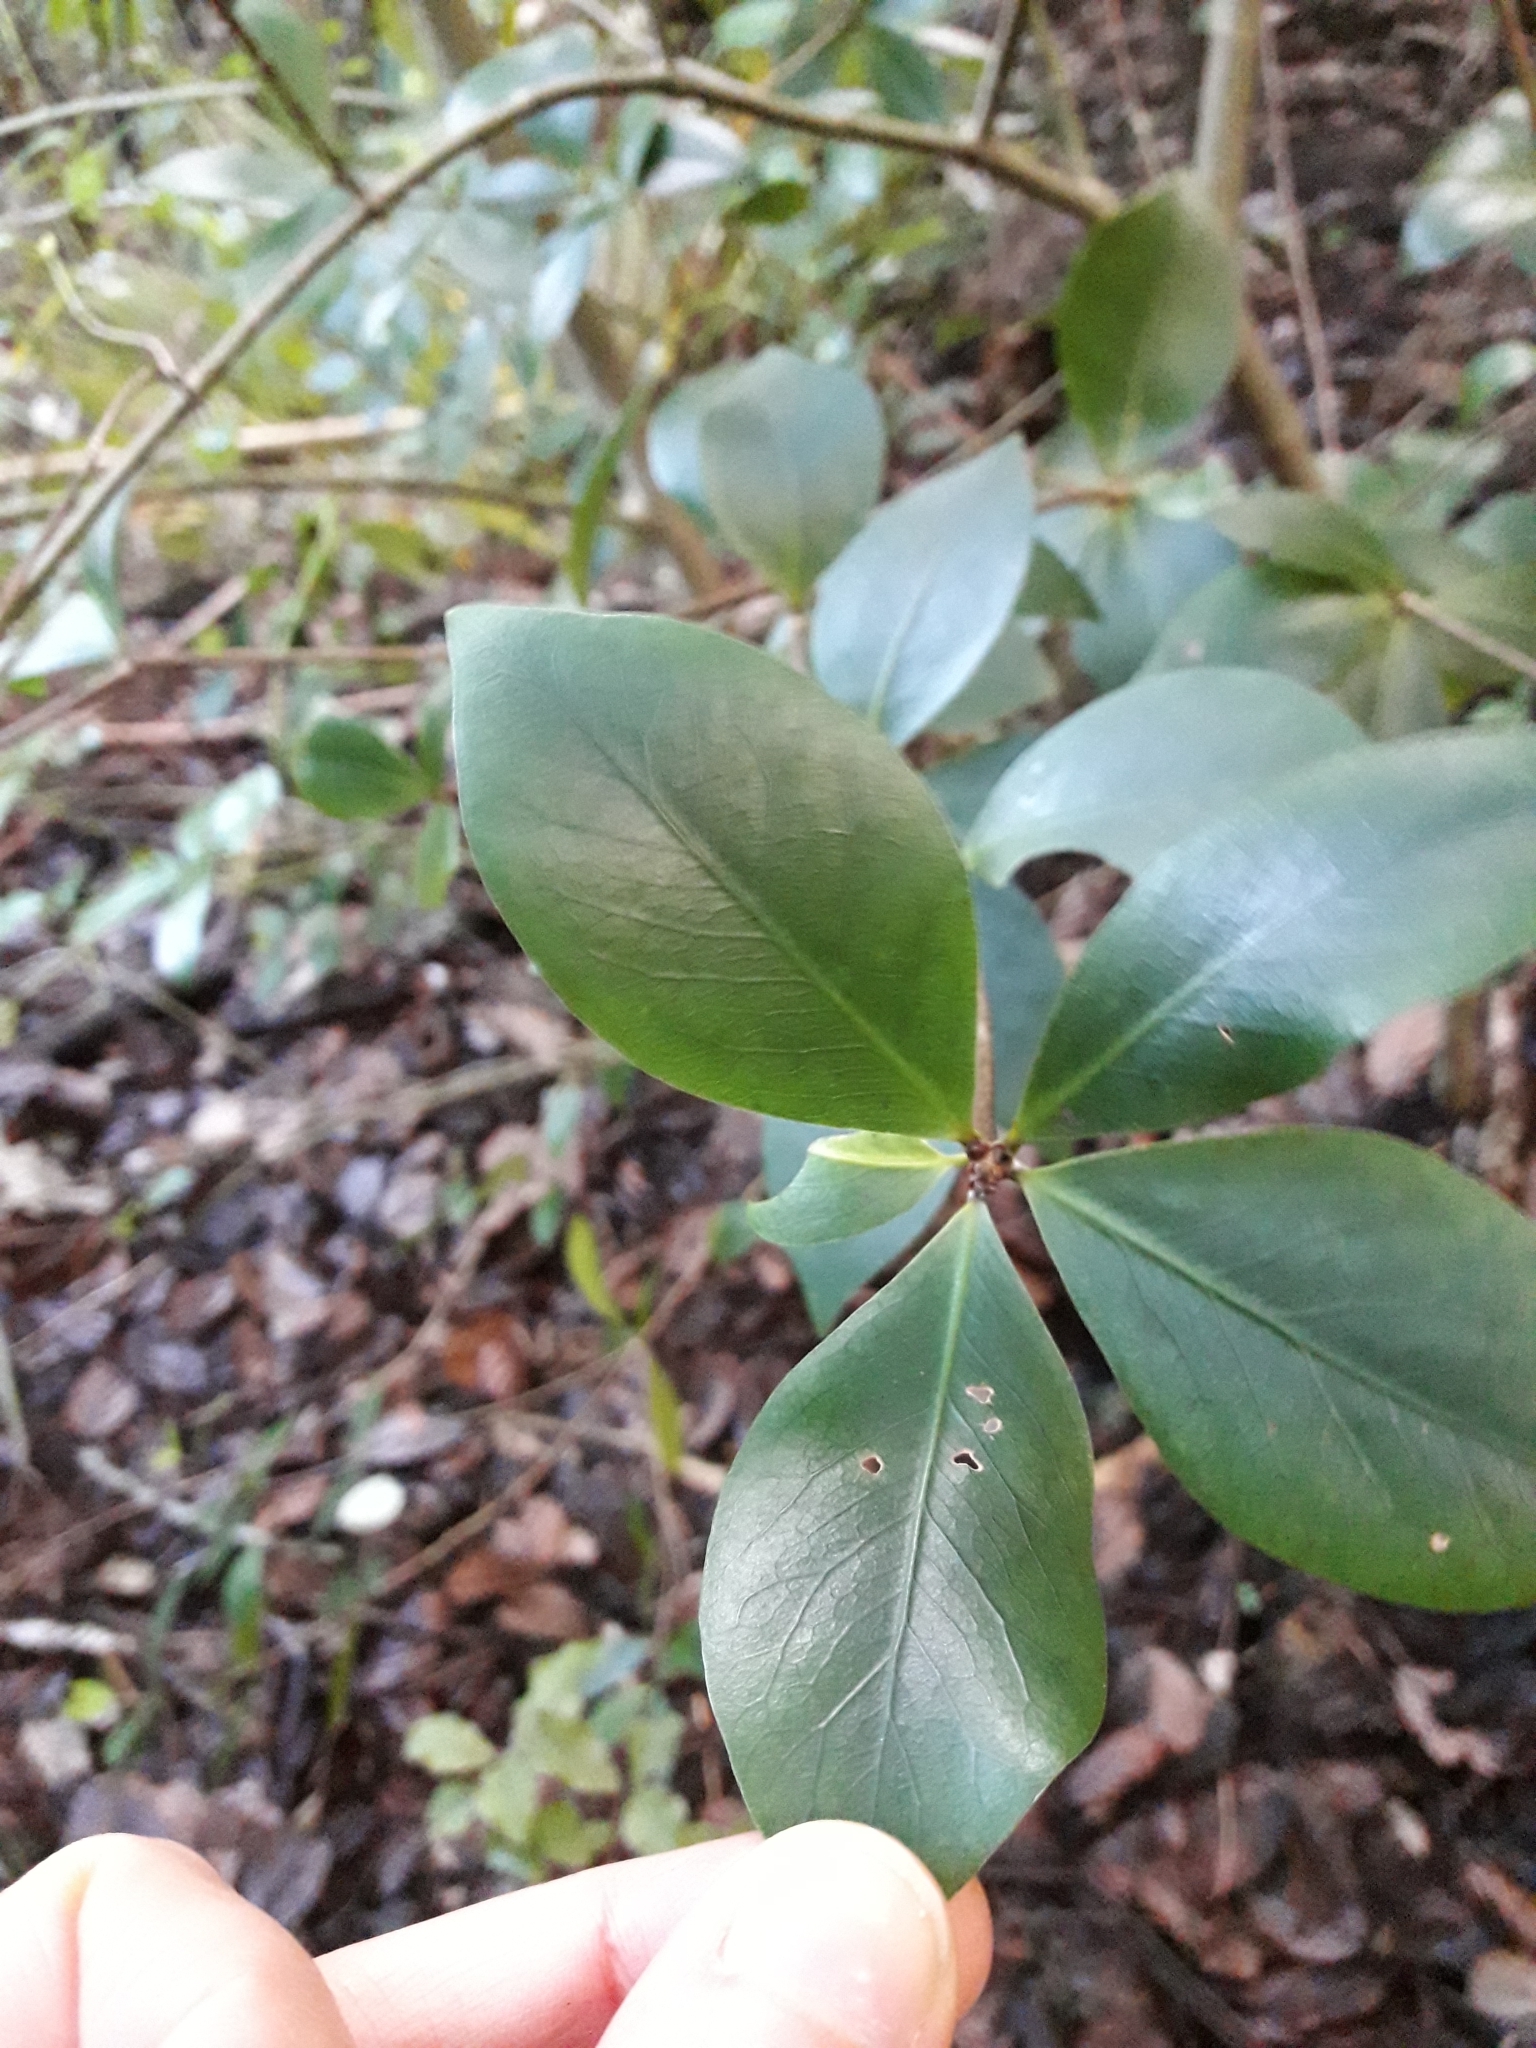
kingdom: Plantae
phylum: Tracheophyta
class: Magnoliopsida
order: Apiales
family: Pittosporaceae
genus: Pittosporum
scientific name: Pittosporum cornifolium
